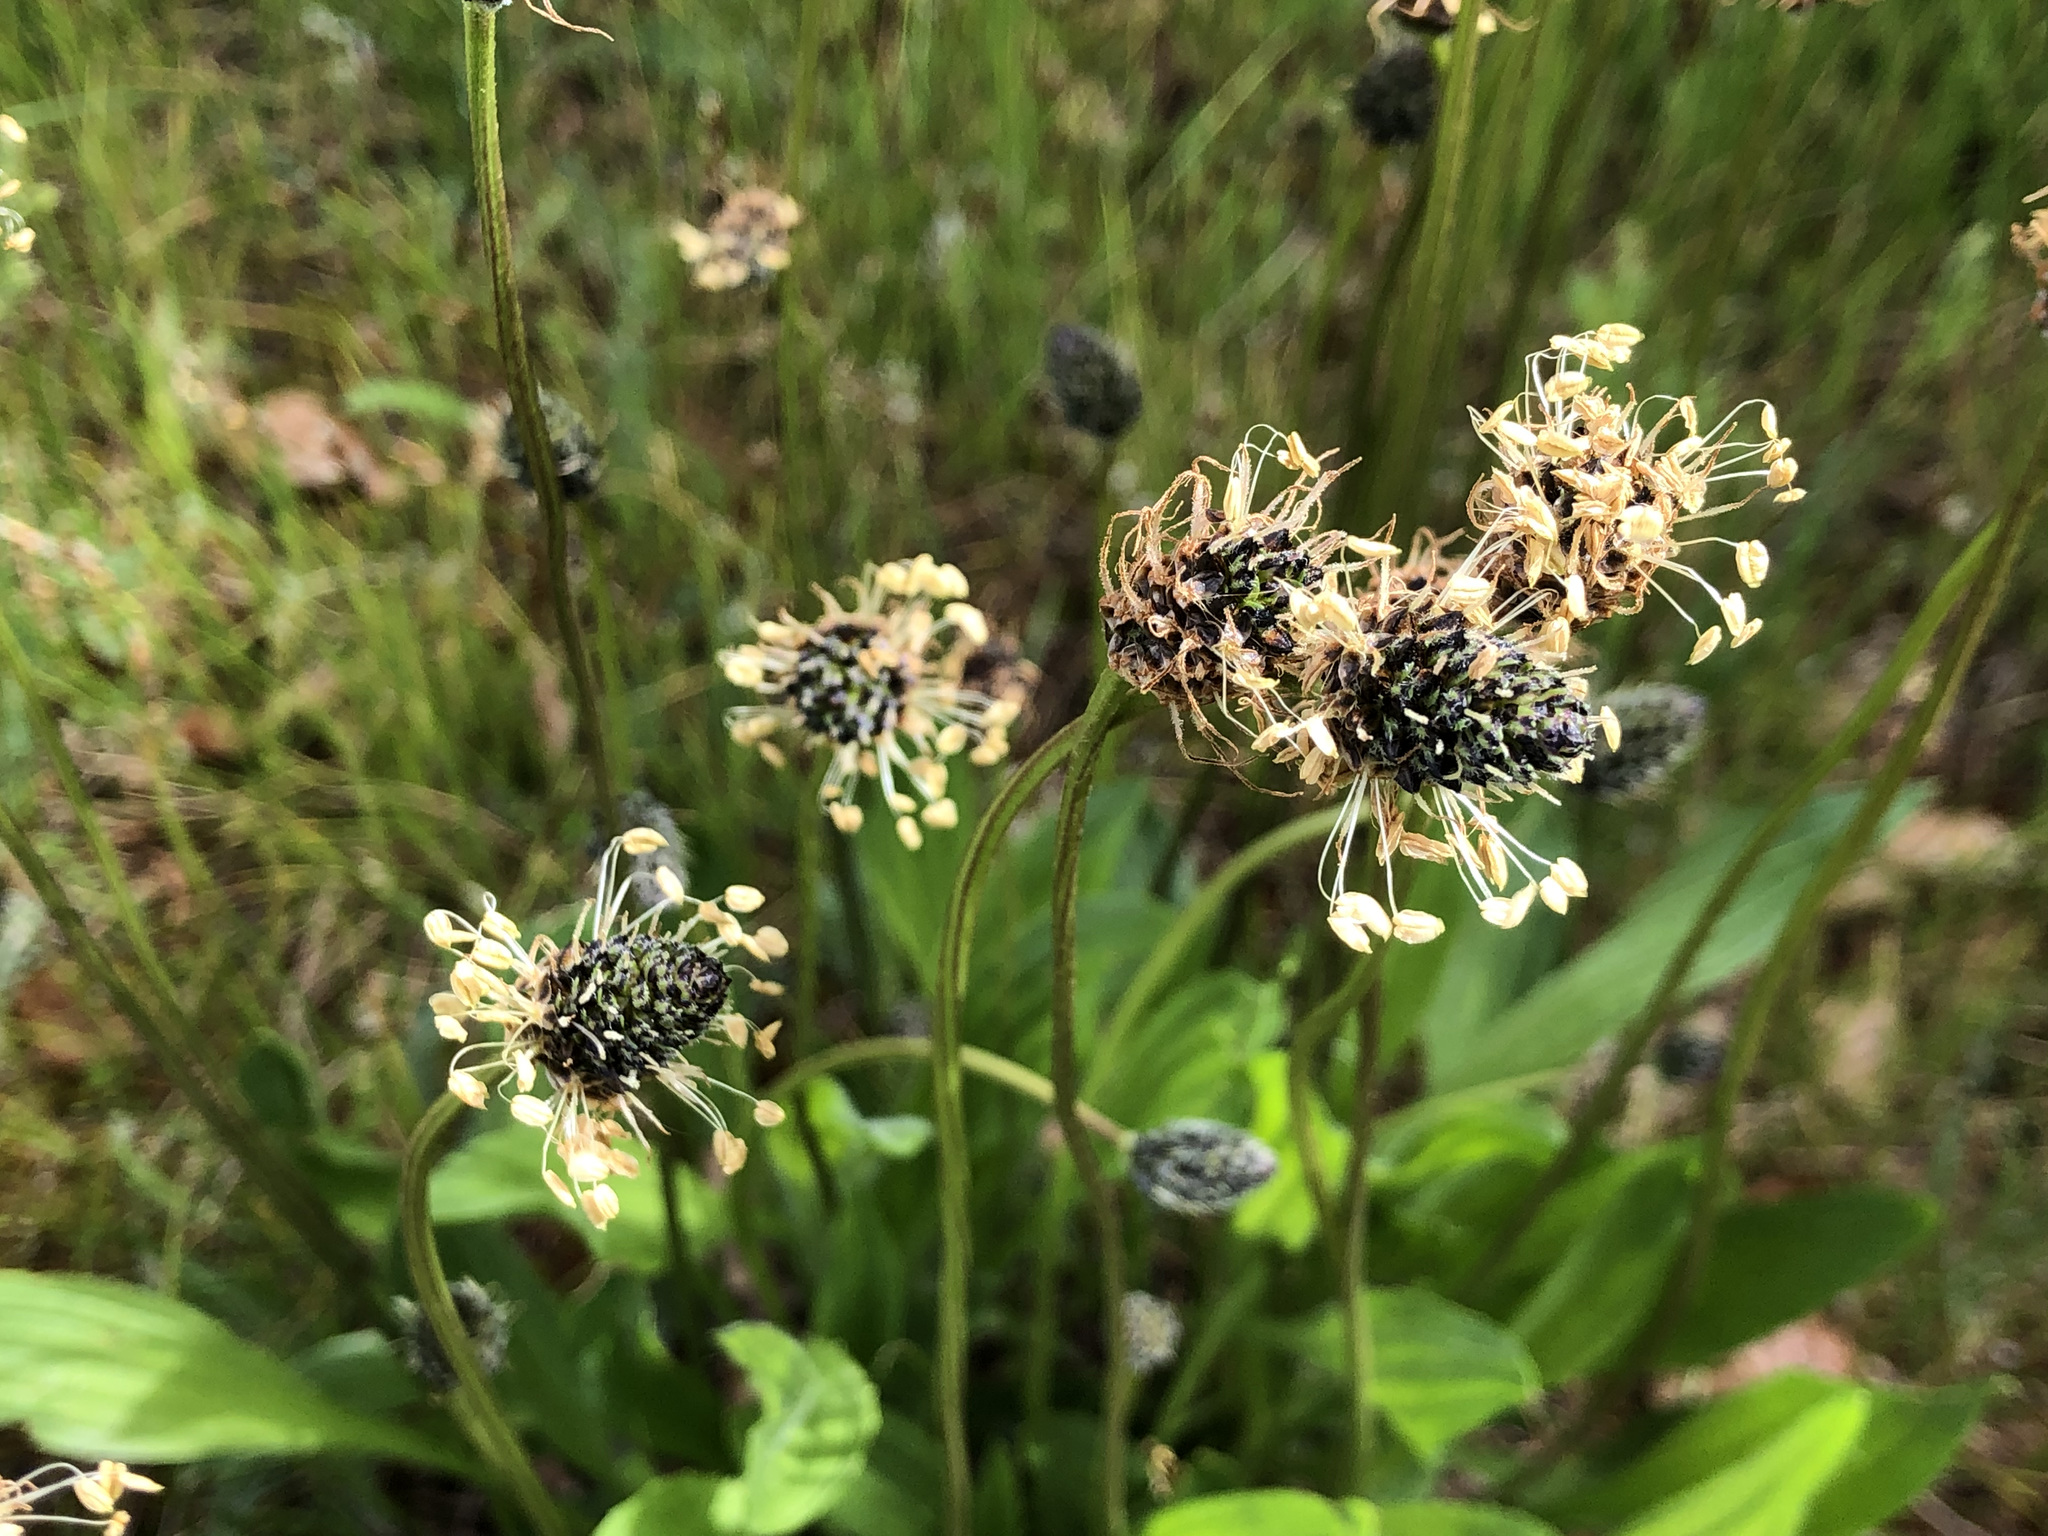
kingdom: Plantae
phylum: Tracheophyta
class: Magnoliopsida
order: Lamiales
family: Plantaginaceae
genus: Plantago
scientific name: Plantago lanceolata
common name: Ribwort plantain
